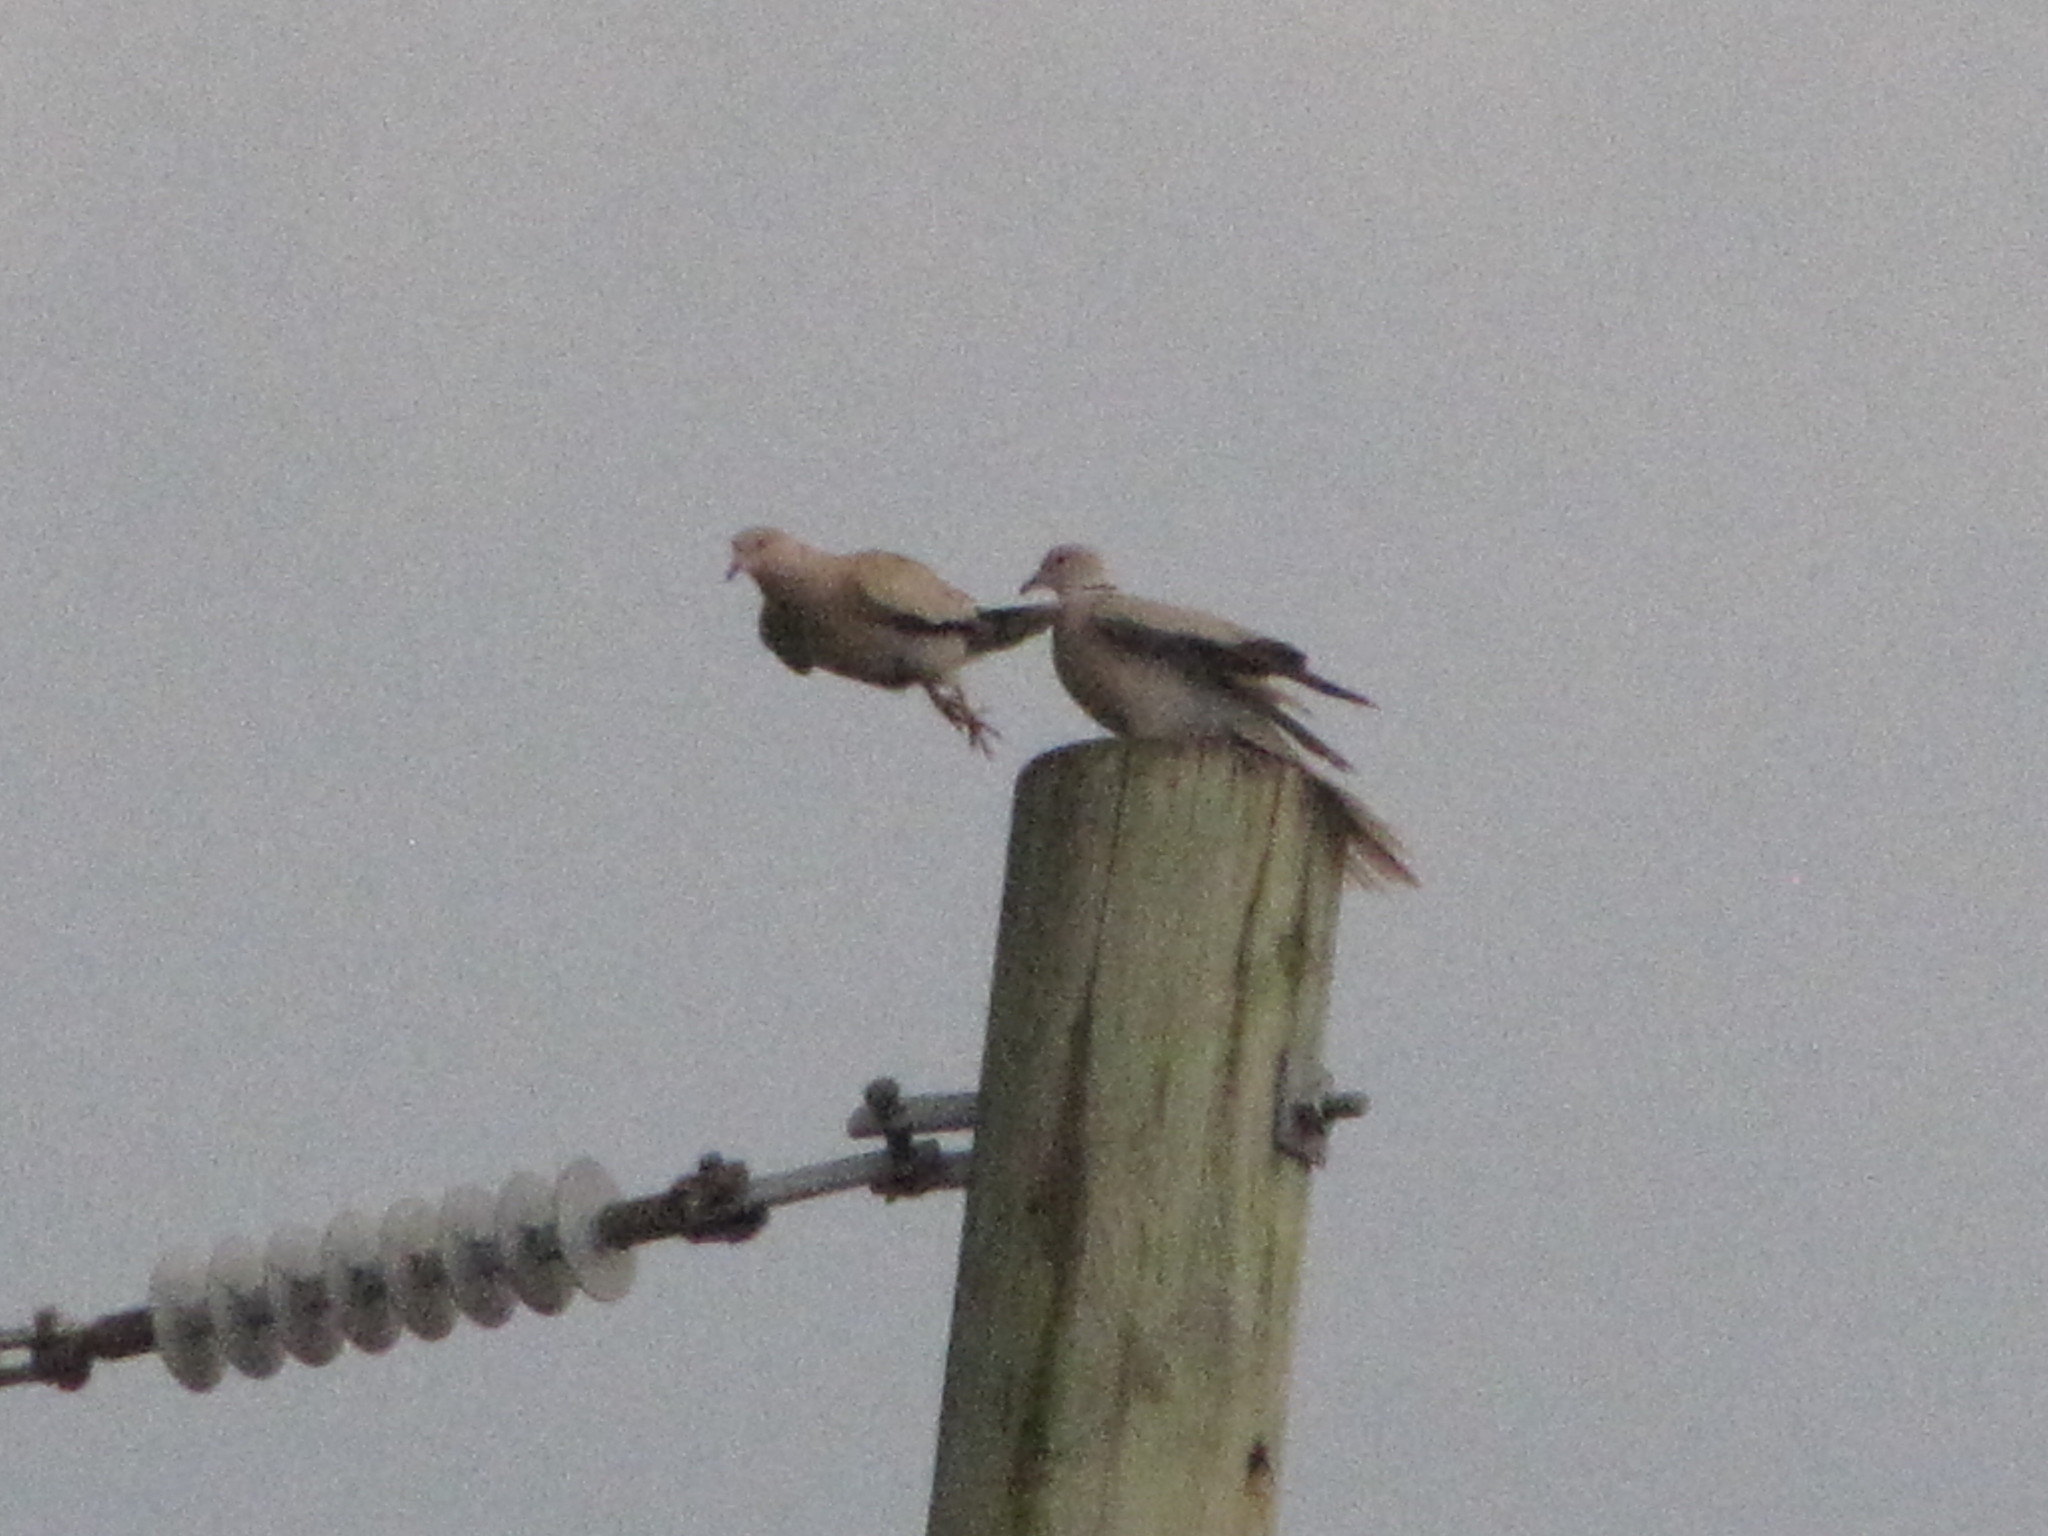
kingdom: Animalia
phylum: Chordata
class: Aves
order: Columbiformes
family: Columbidae
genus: Streptopelia
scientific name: Streptopelia decaocto
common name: Eurasian collared dove
